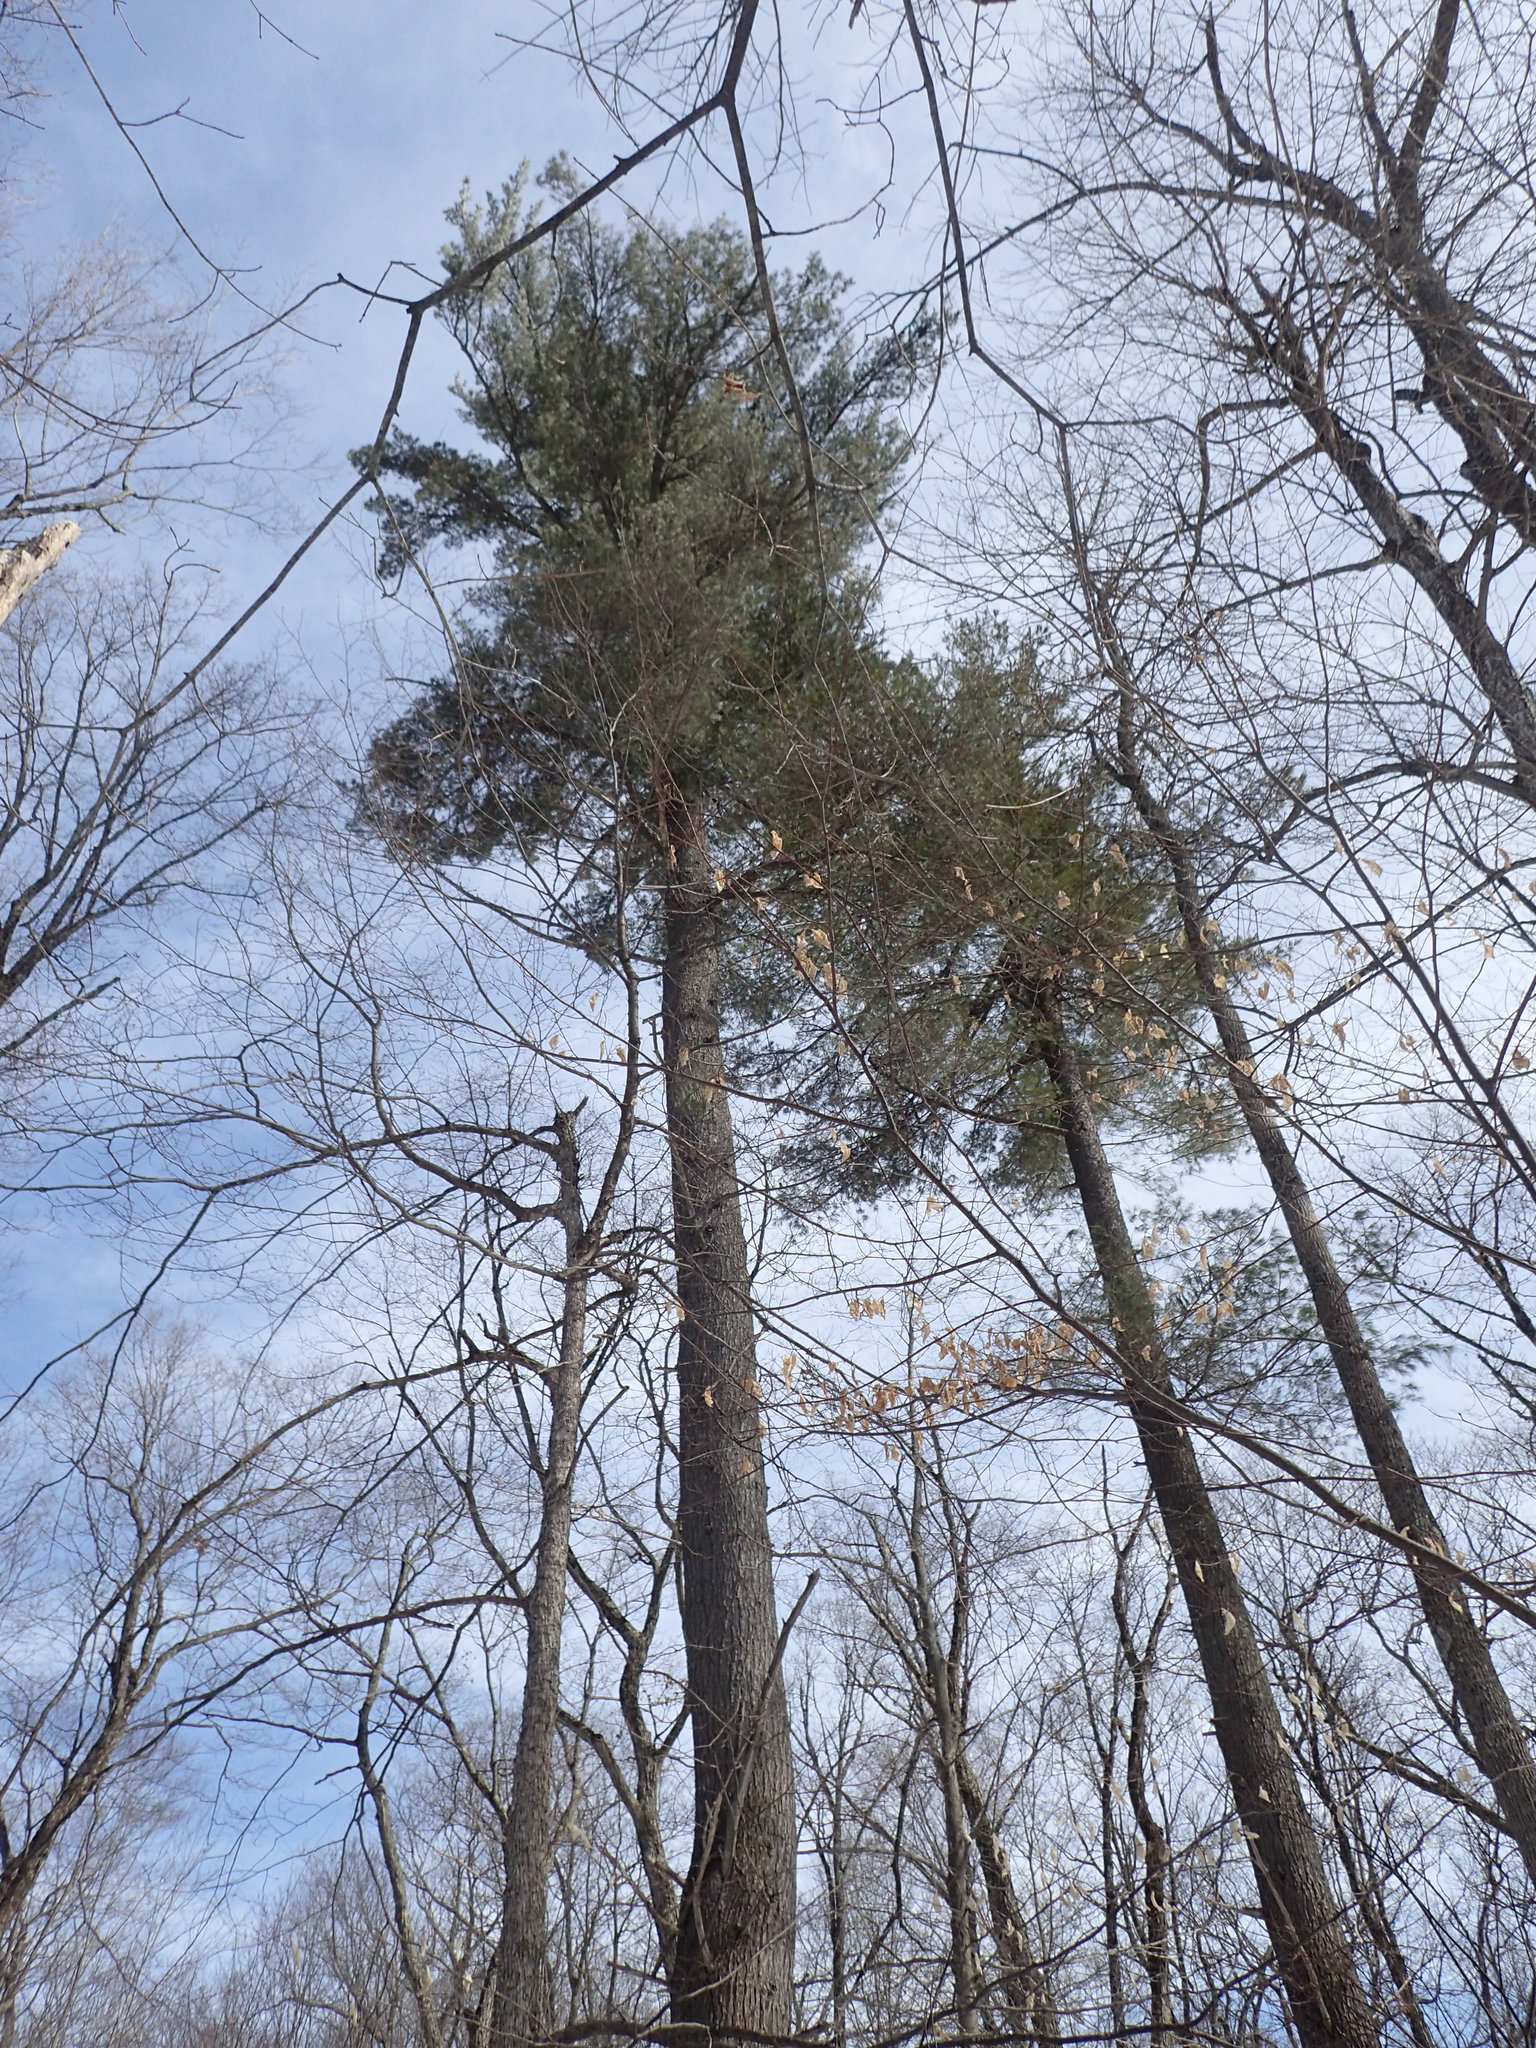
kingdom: Plantae
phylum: Tracheophyta
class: Pinopsida
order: Pinales
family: Pinaceae
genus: Pinus
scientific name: Pinus strobus
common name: Weymouth pine
